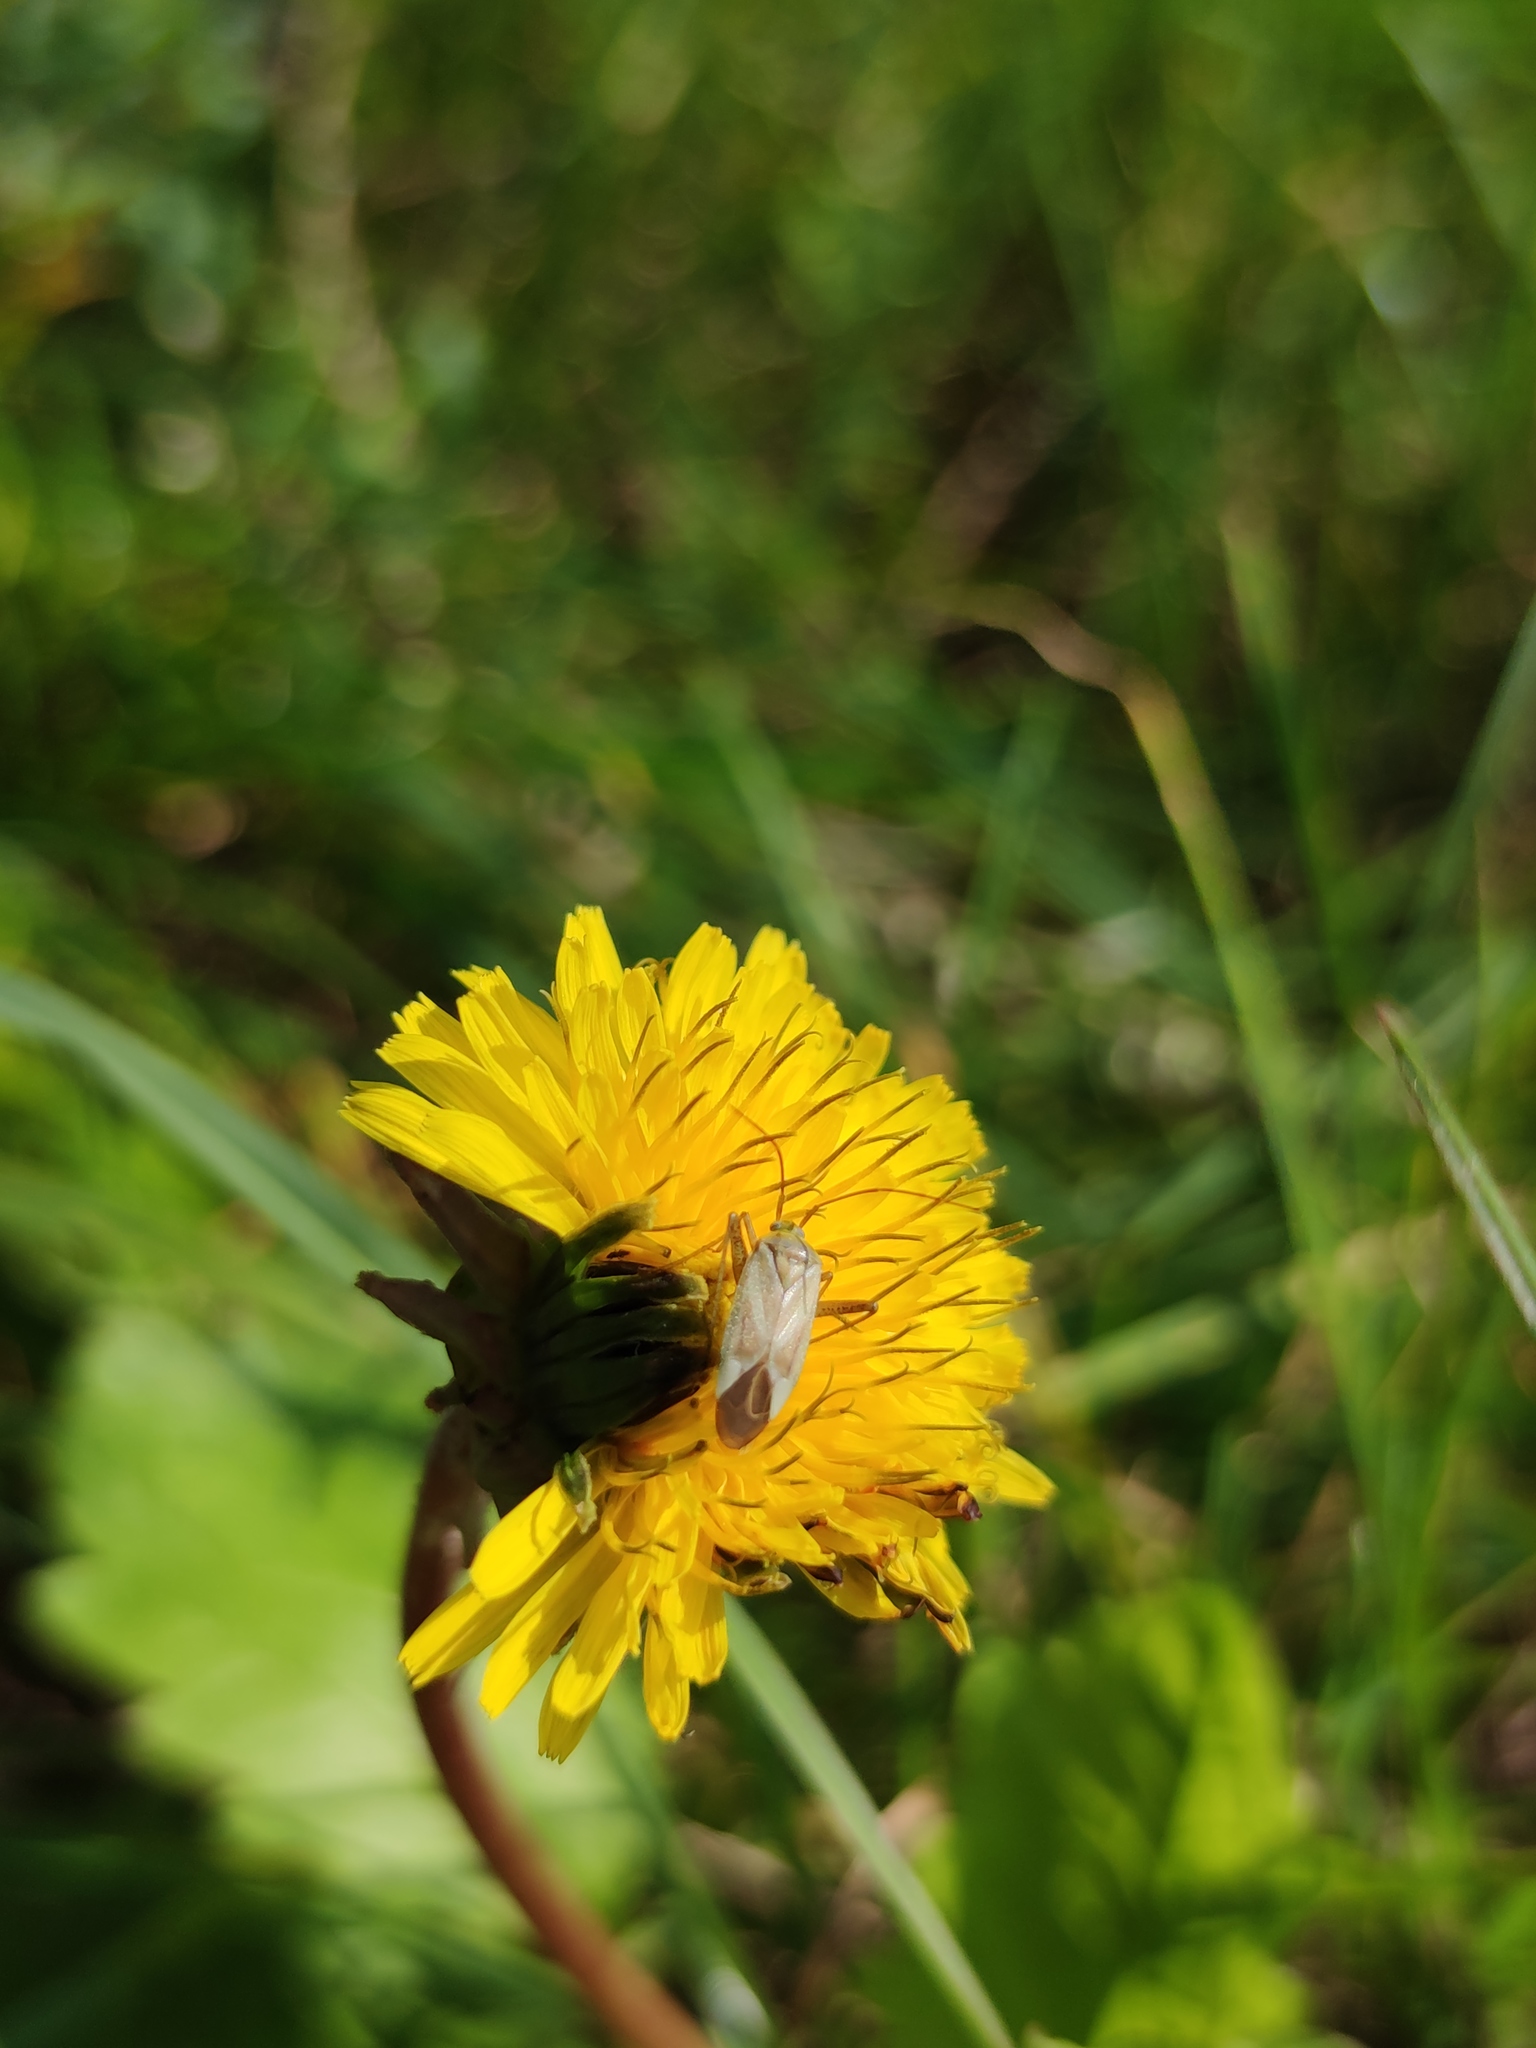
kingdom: Animalia
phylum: Arthropoda
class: Insecta
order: Hemiptera
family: Miridae
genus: Adelphocoris
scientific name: Adelphocoris lineolatus
